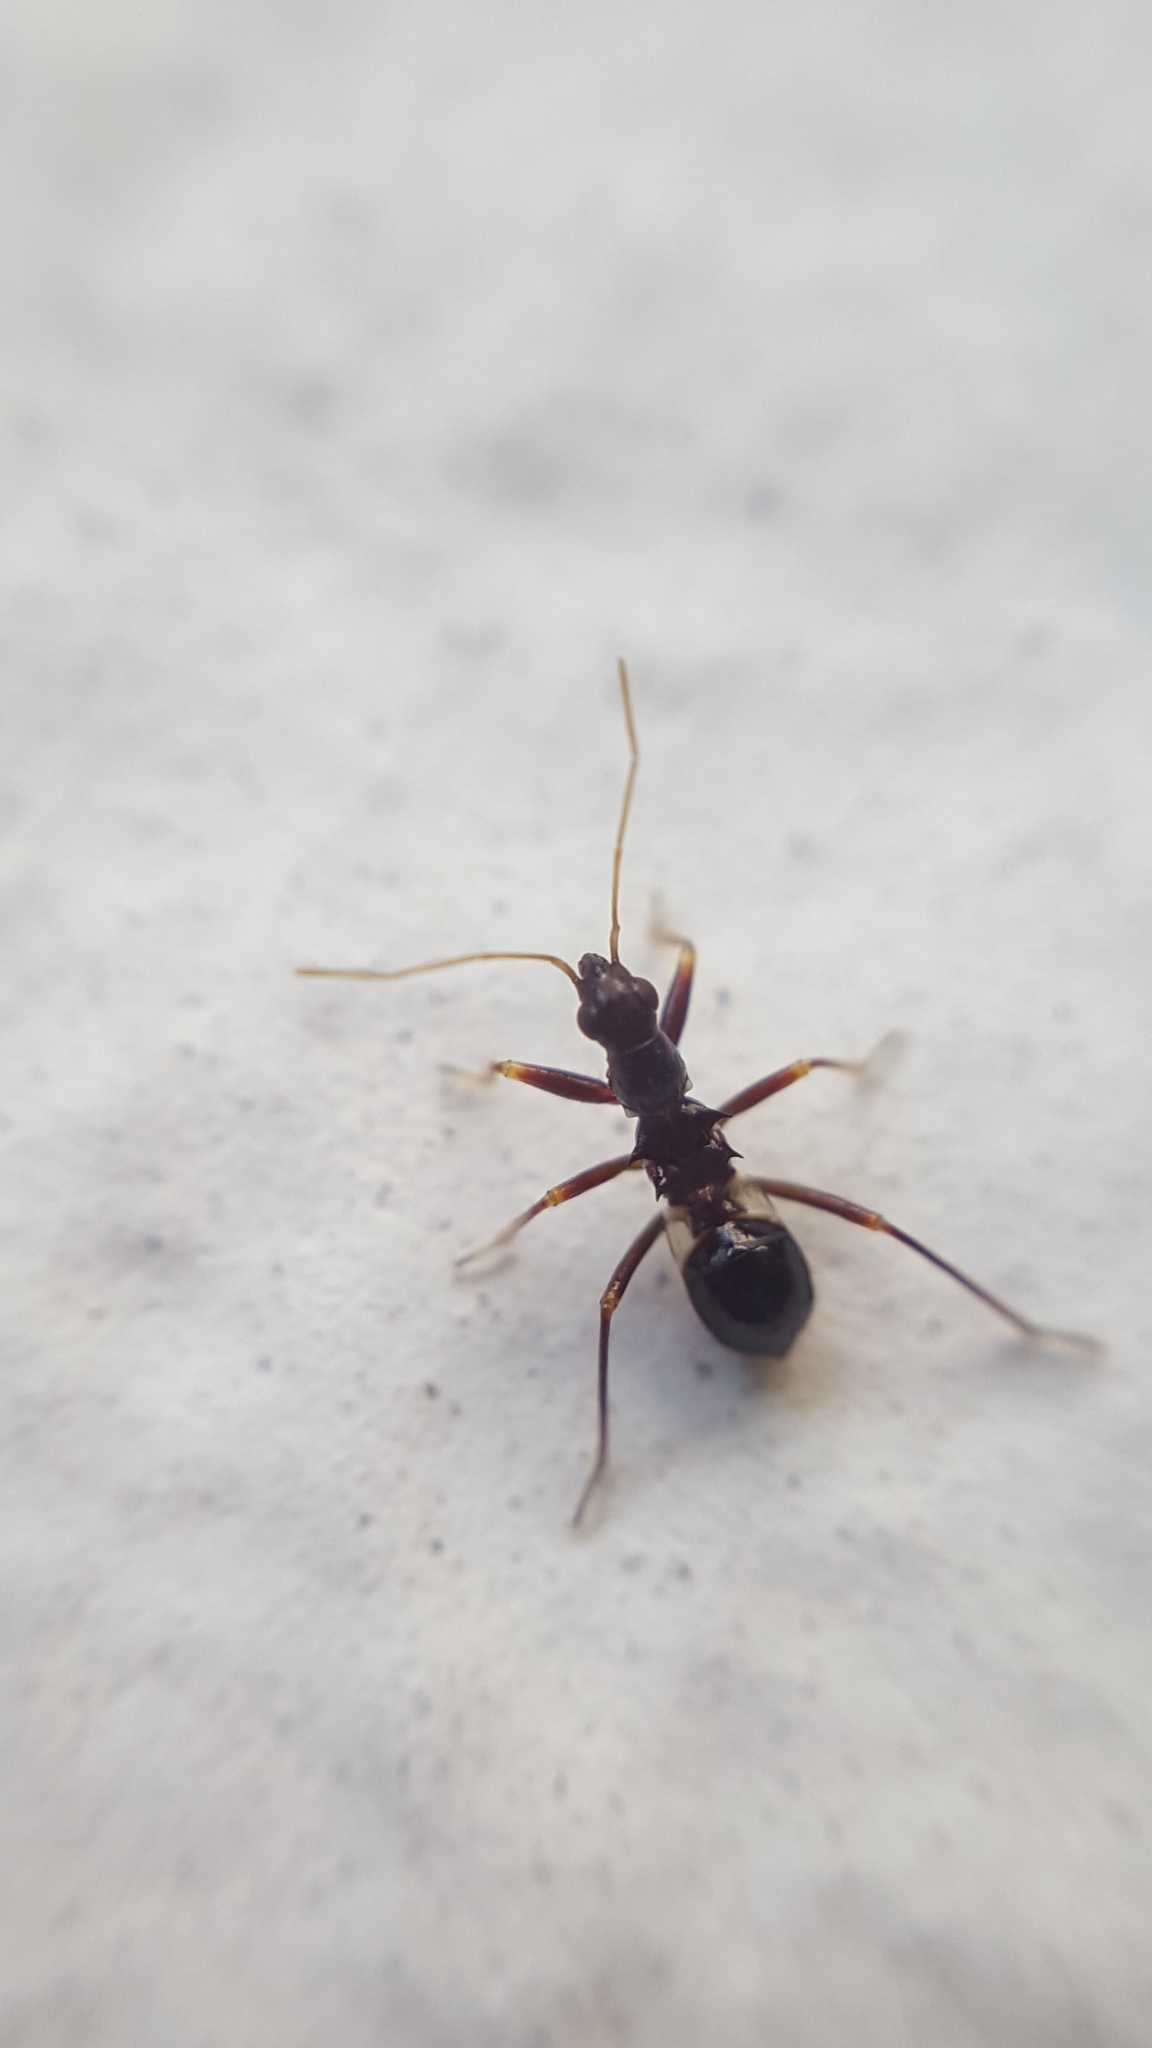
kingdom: Animalia
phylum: Arthropoda
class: Insecta
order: Hemiptera
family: Nabidae
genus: Himacerus
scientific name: Himacerus mirmicoides
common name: Ant damsel bug
